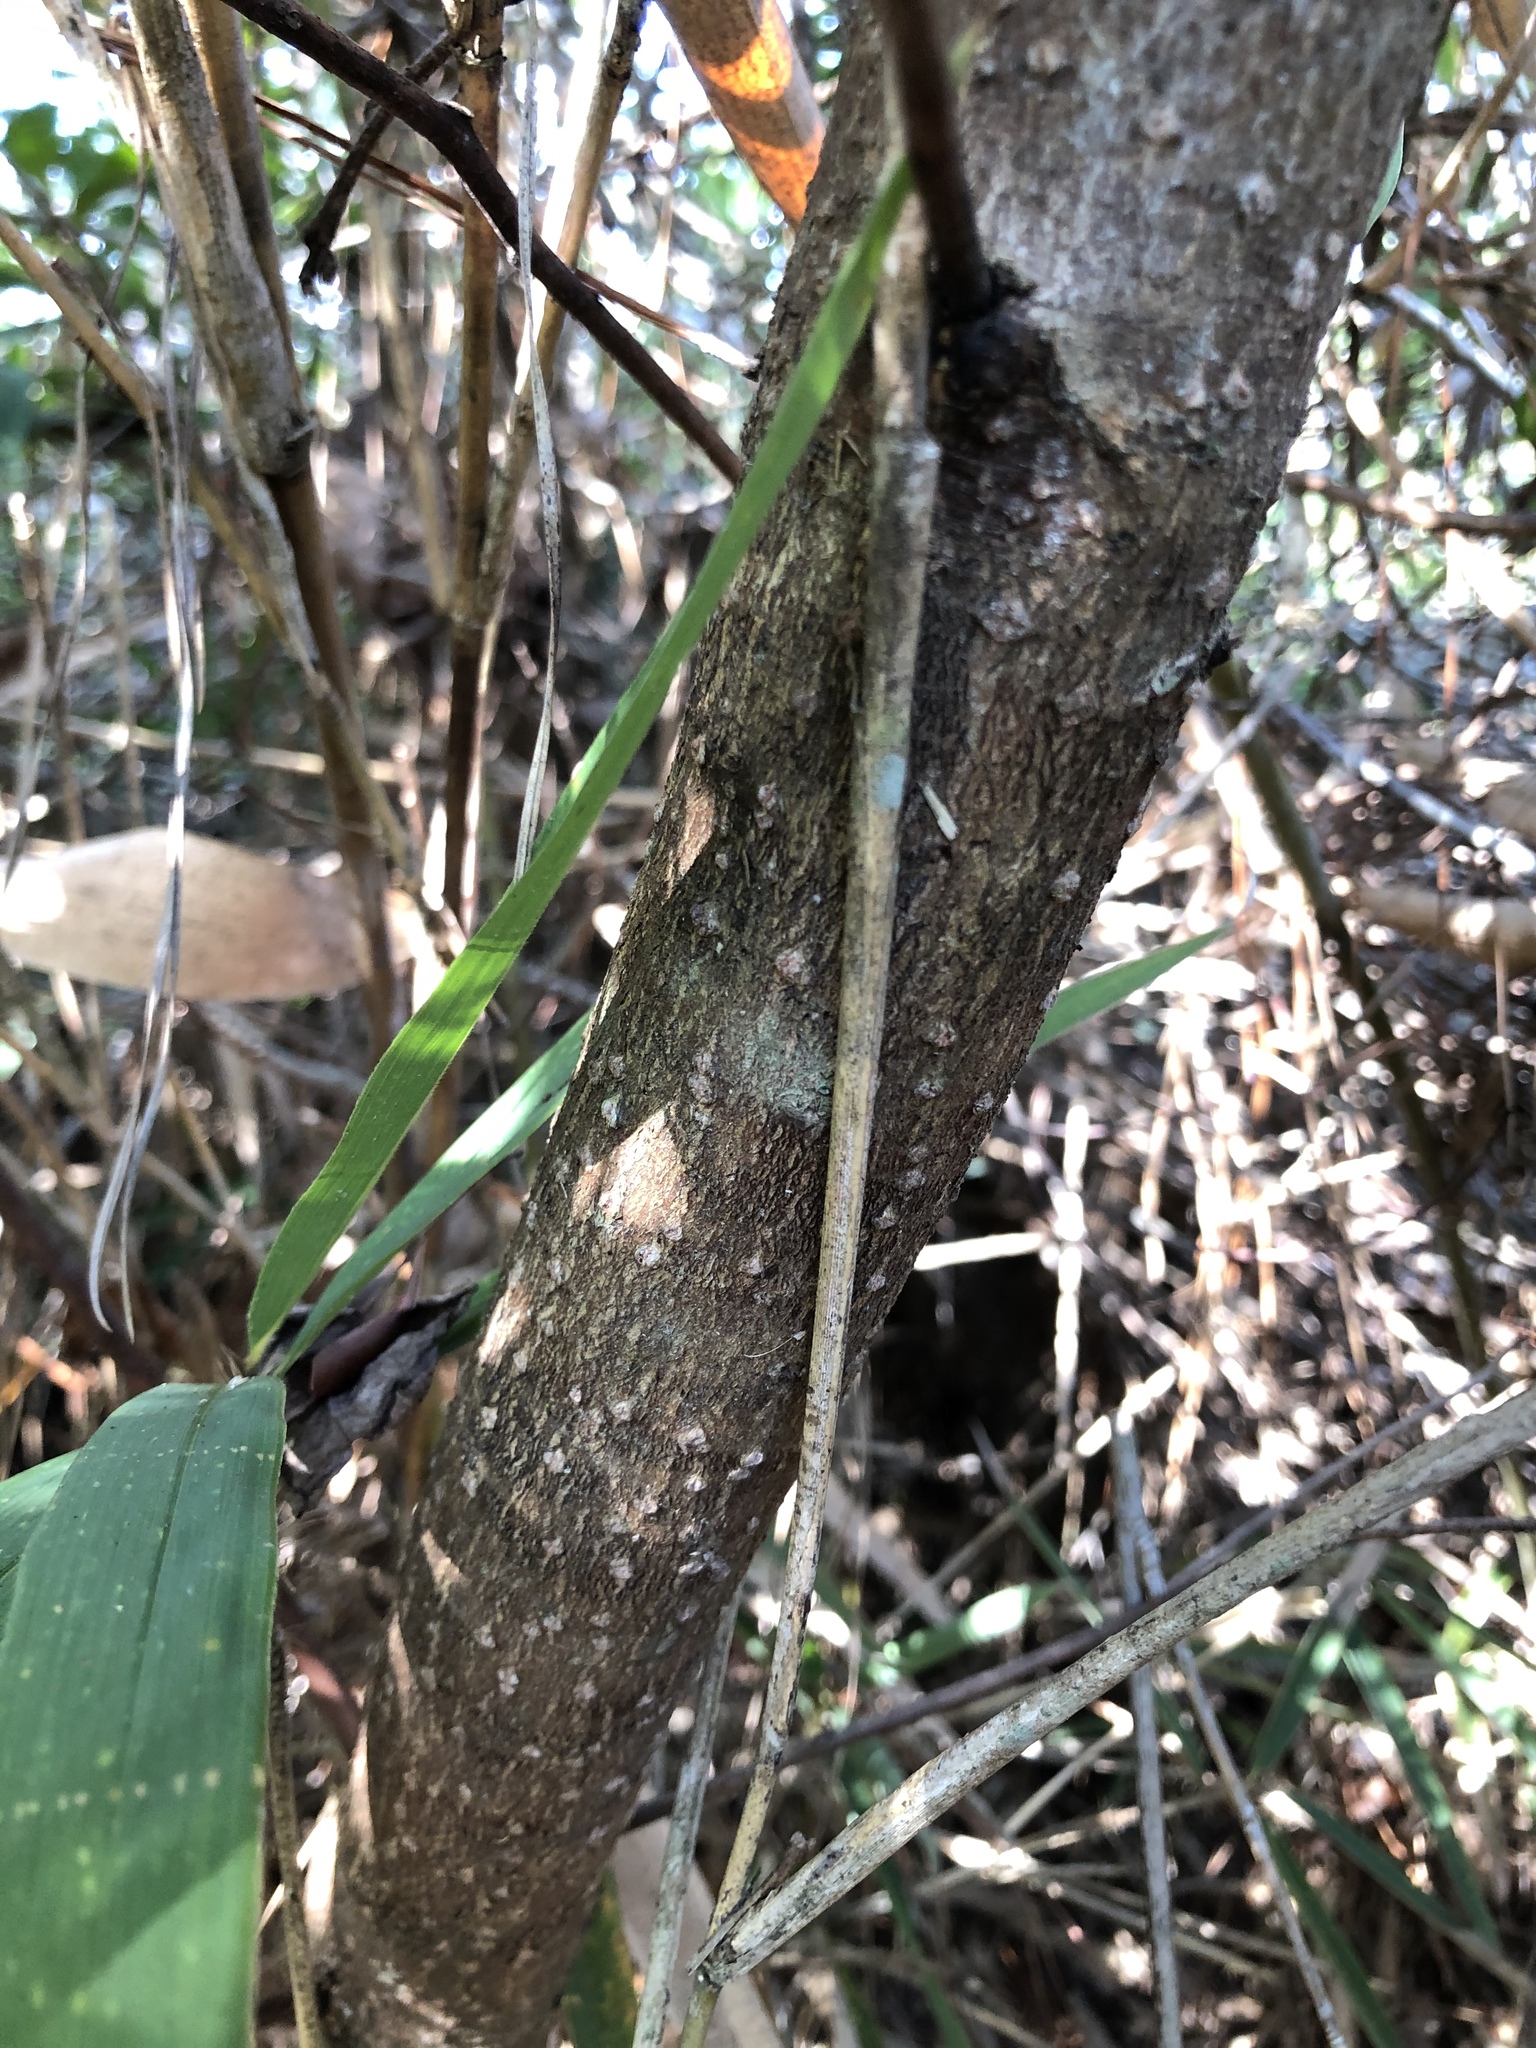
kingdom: Plantae
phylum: Tracheophyta
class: Magnoliopsida
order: Laurales
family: Lauraceae
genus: Persea
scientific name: Persea palustris
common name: Swampbay
